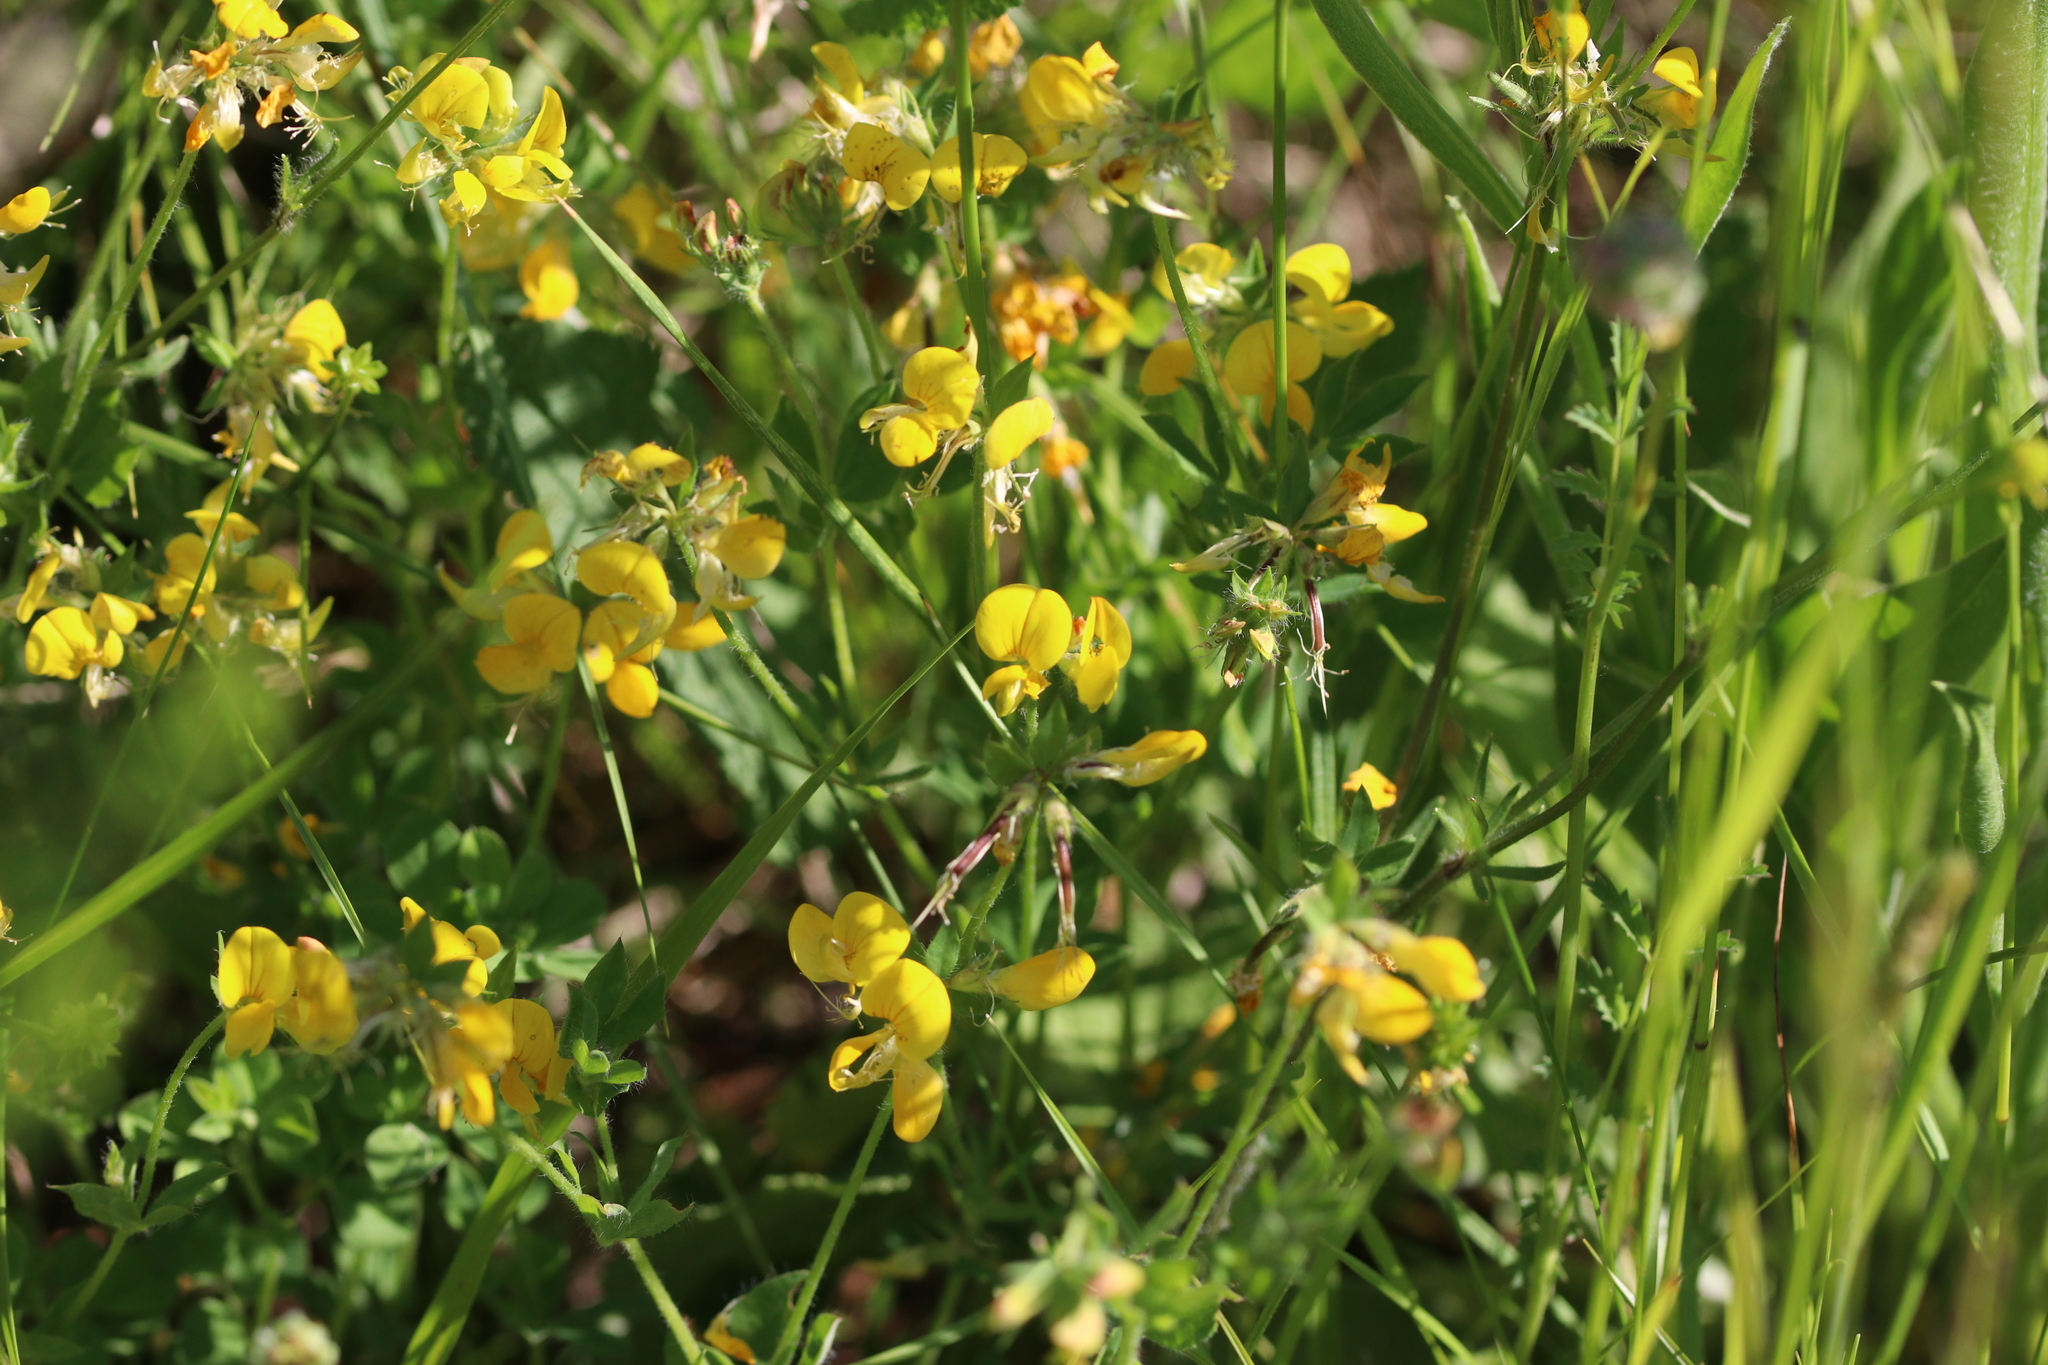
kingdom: Plantae
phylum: Tracheophyta
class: Magnoliopsida
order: Fabales
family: Fabaceae
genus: Hippocrepis
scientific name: Hippocrepis comosa
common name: Horseshoe vetch
